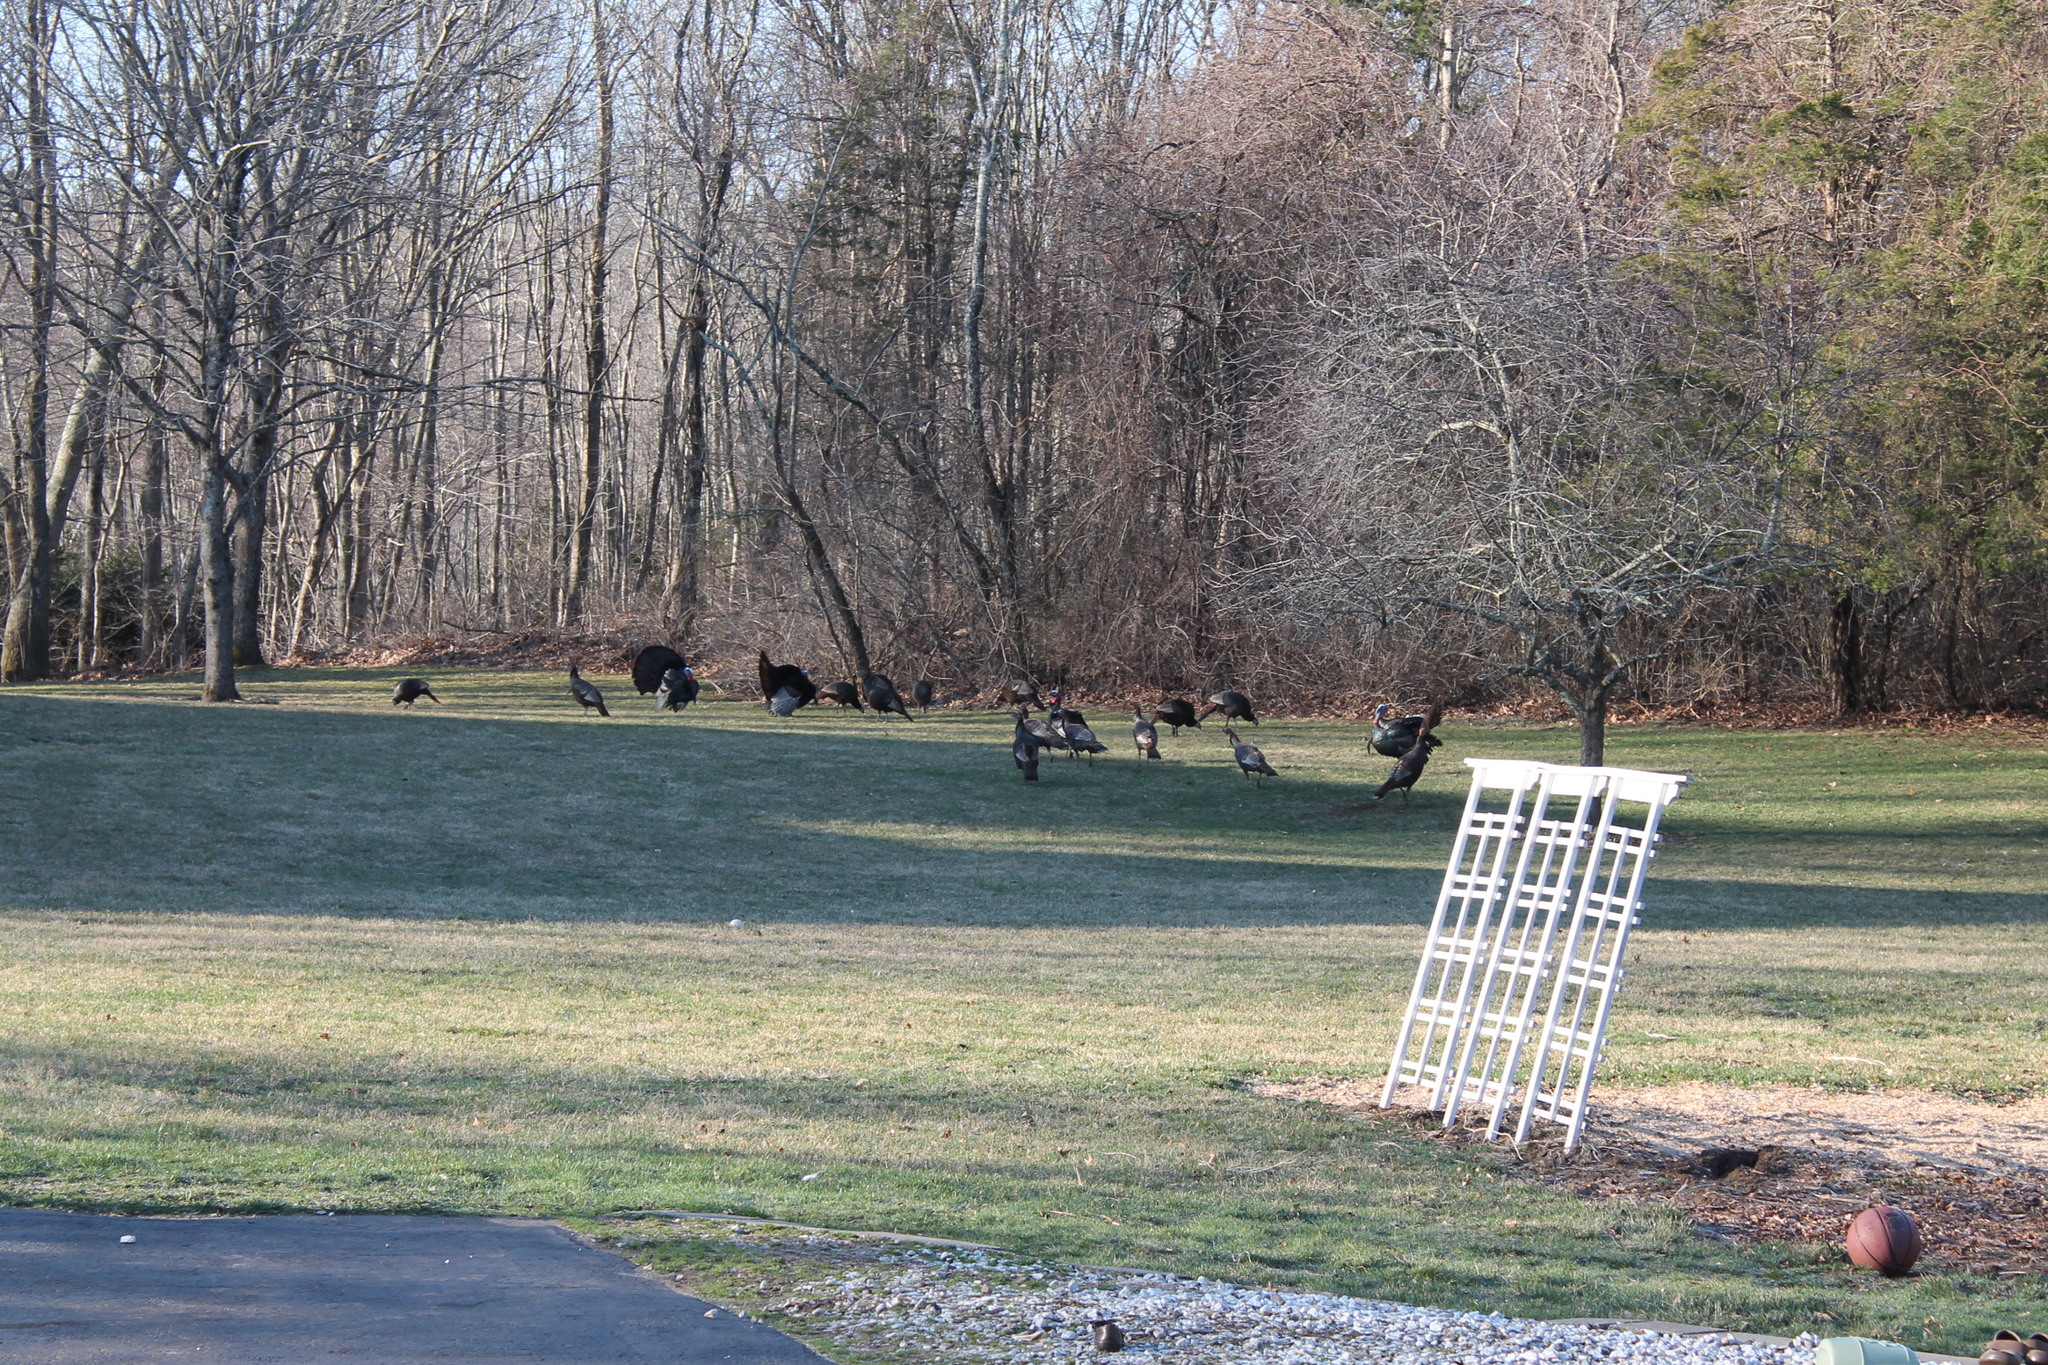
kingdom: Animalia
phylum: Chordata
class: Aves
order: Galliformes
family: Phasianidae
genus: Meleagris
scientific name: Meleagris gallopavo
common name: Wild turkey
